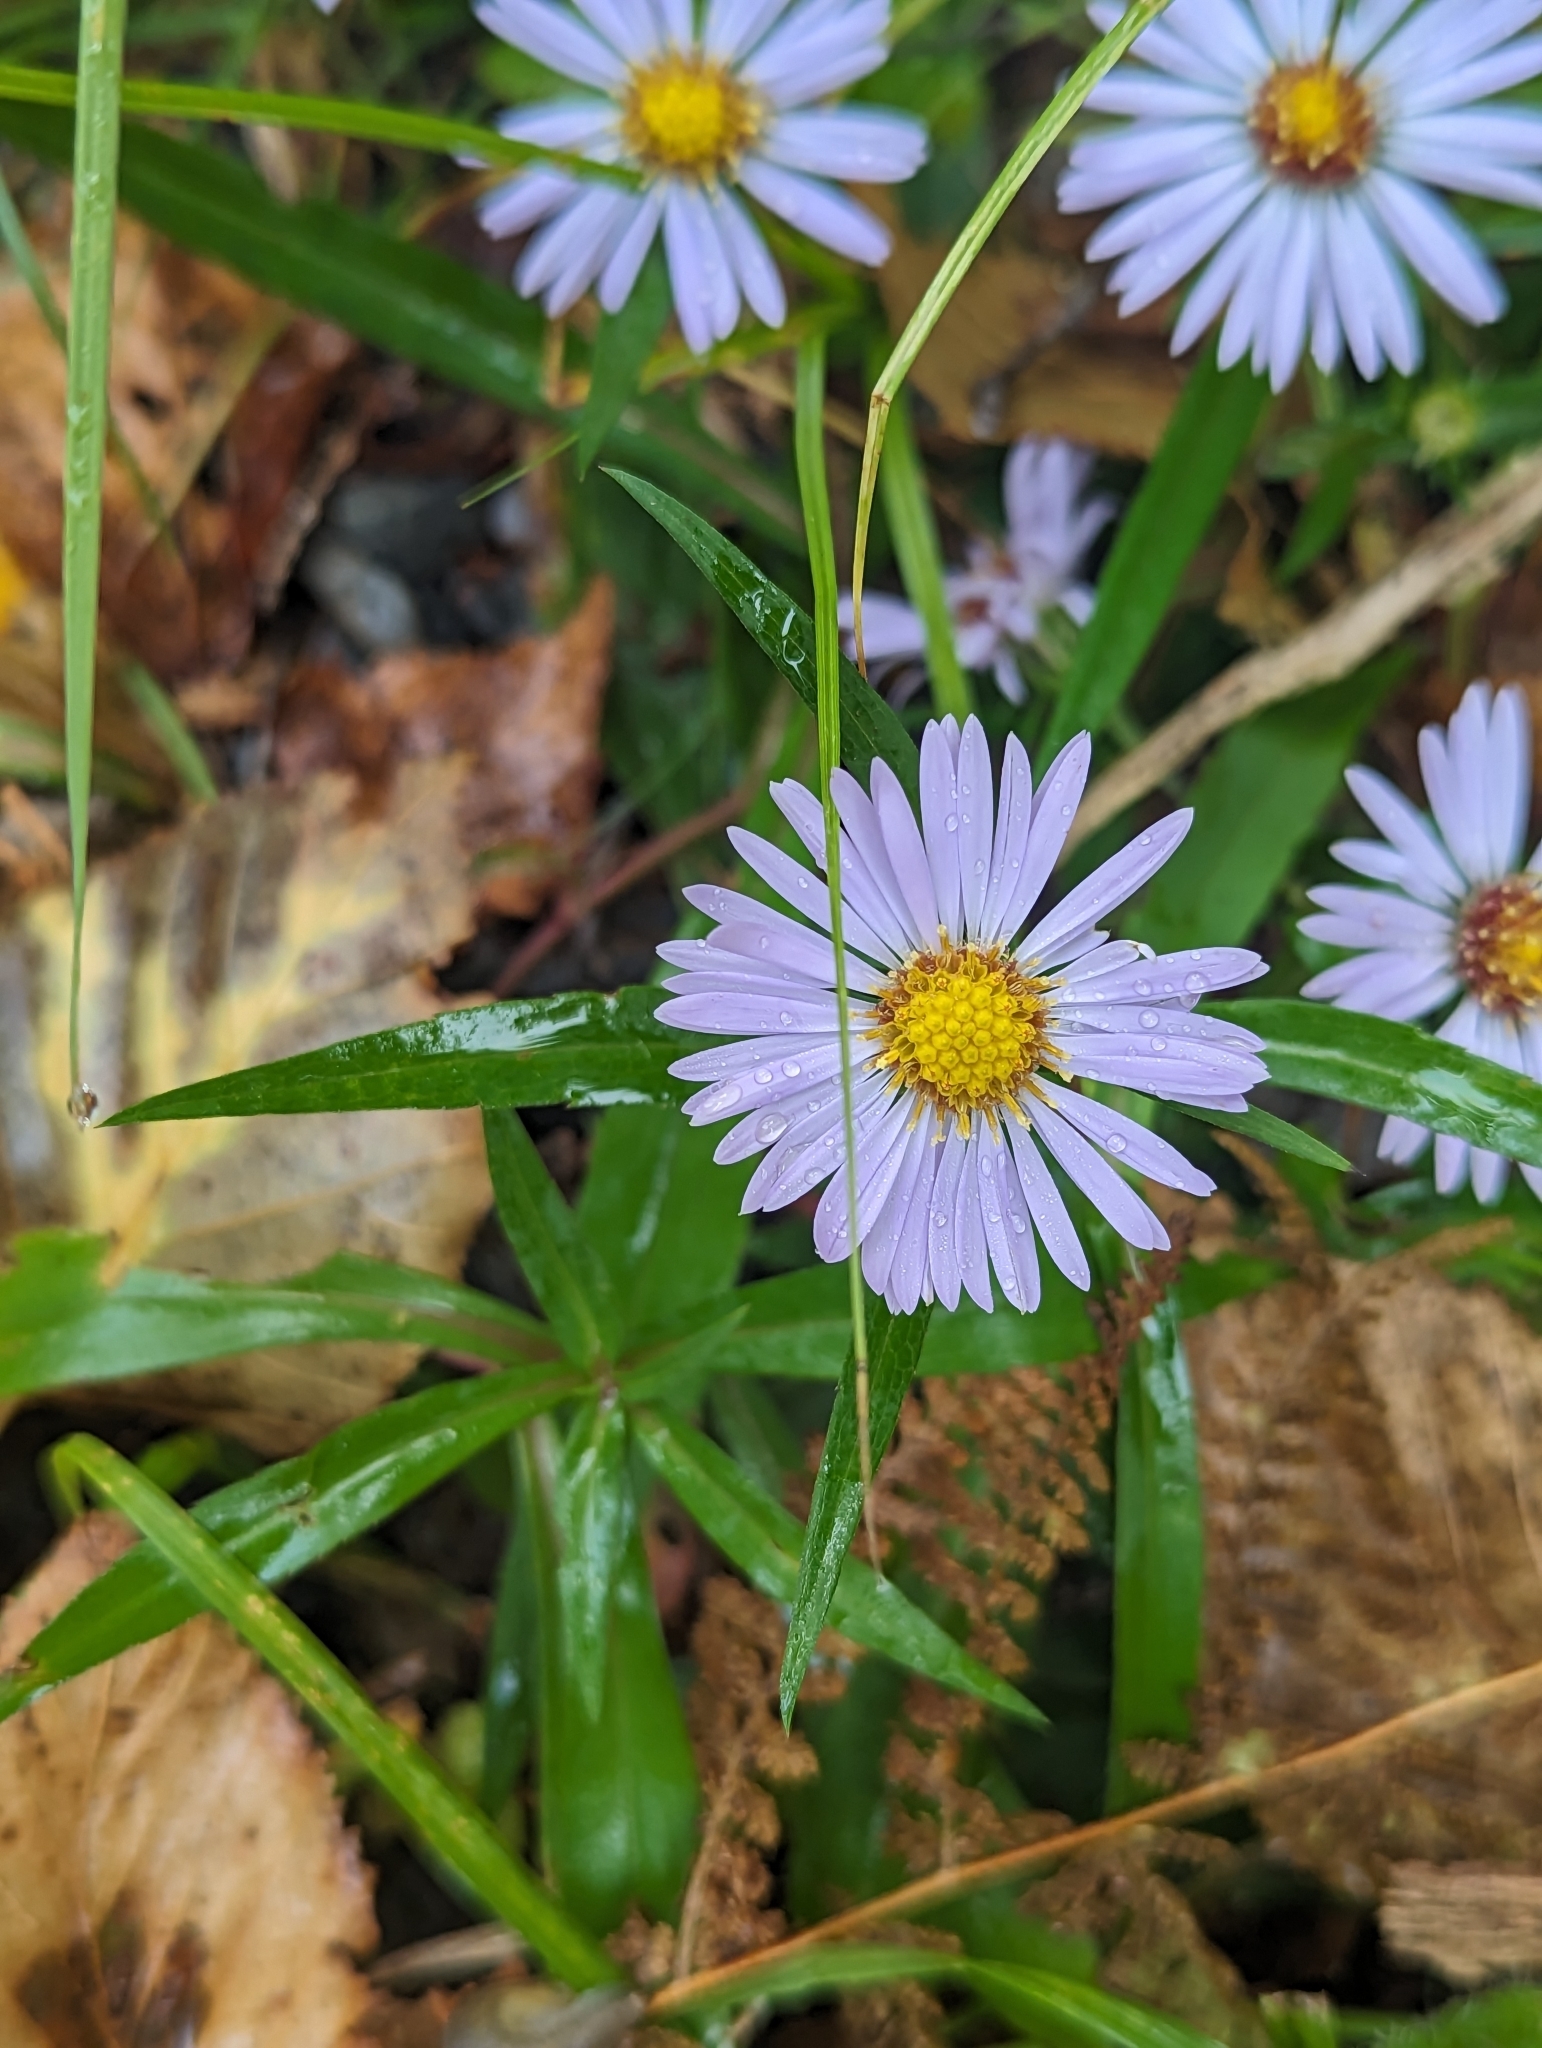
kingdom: Plantae
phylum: Tracheophyta
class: Magnoliopsida
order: Asterales
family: Asteraceae
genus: Symphyotrichum
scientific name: Symphyotrichum novi-belgii
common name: Michaelmas daisy
